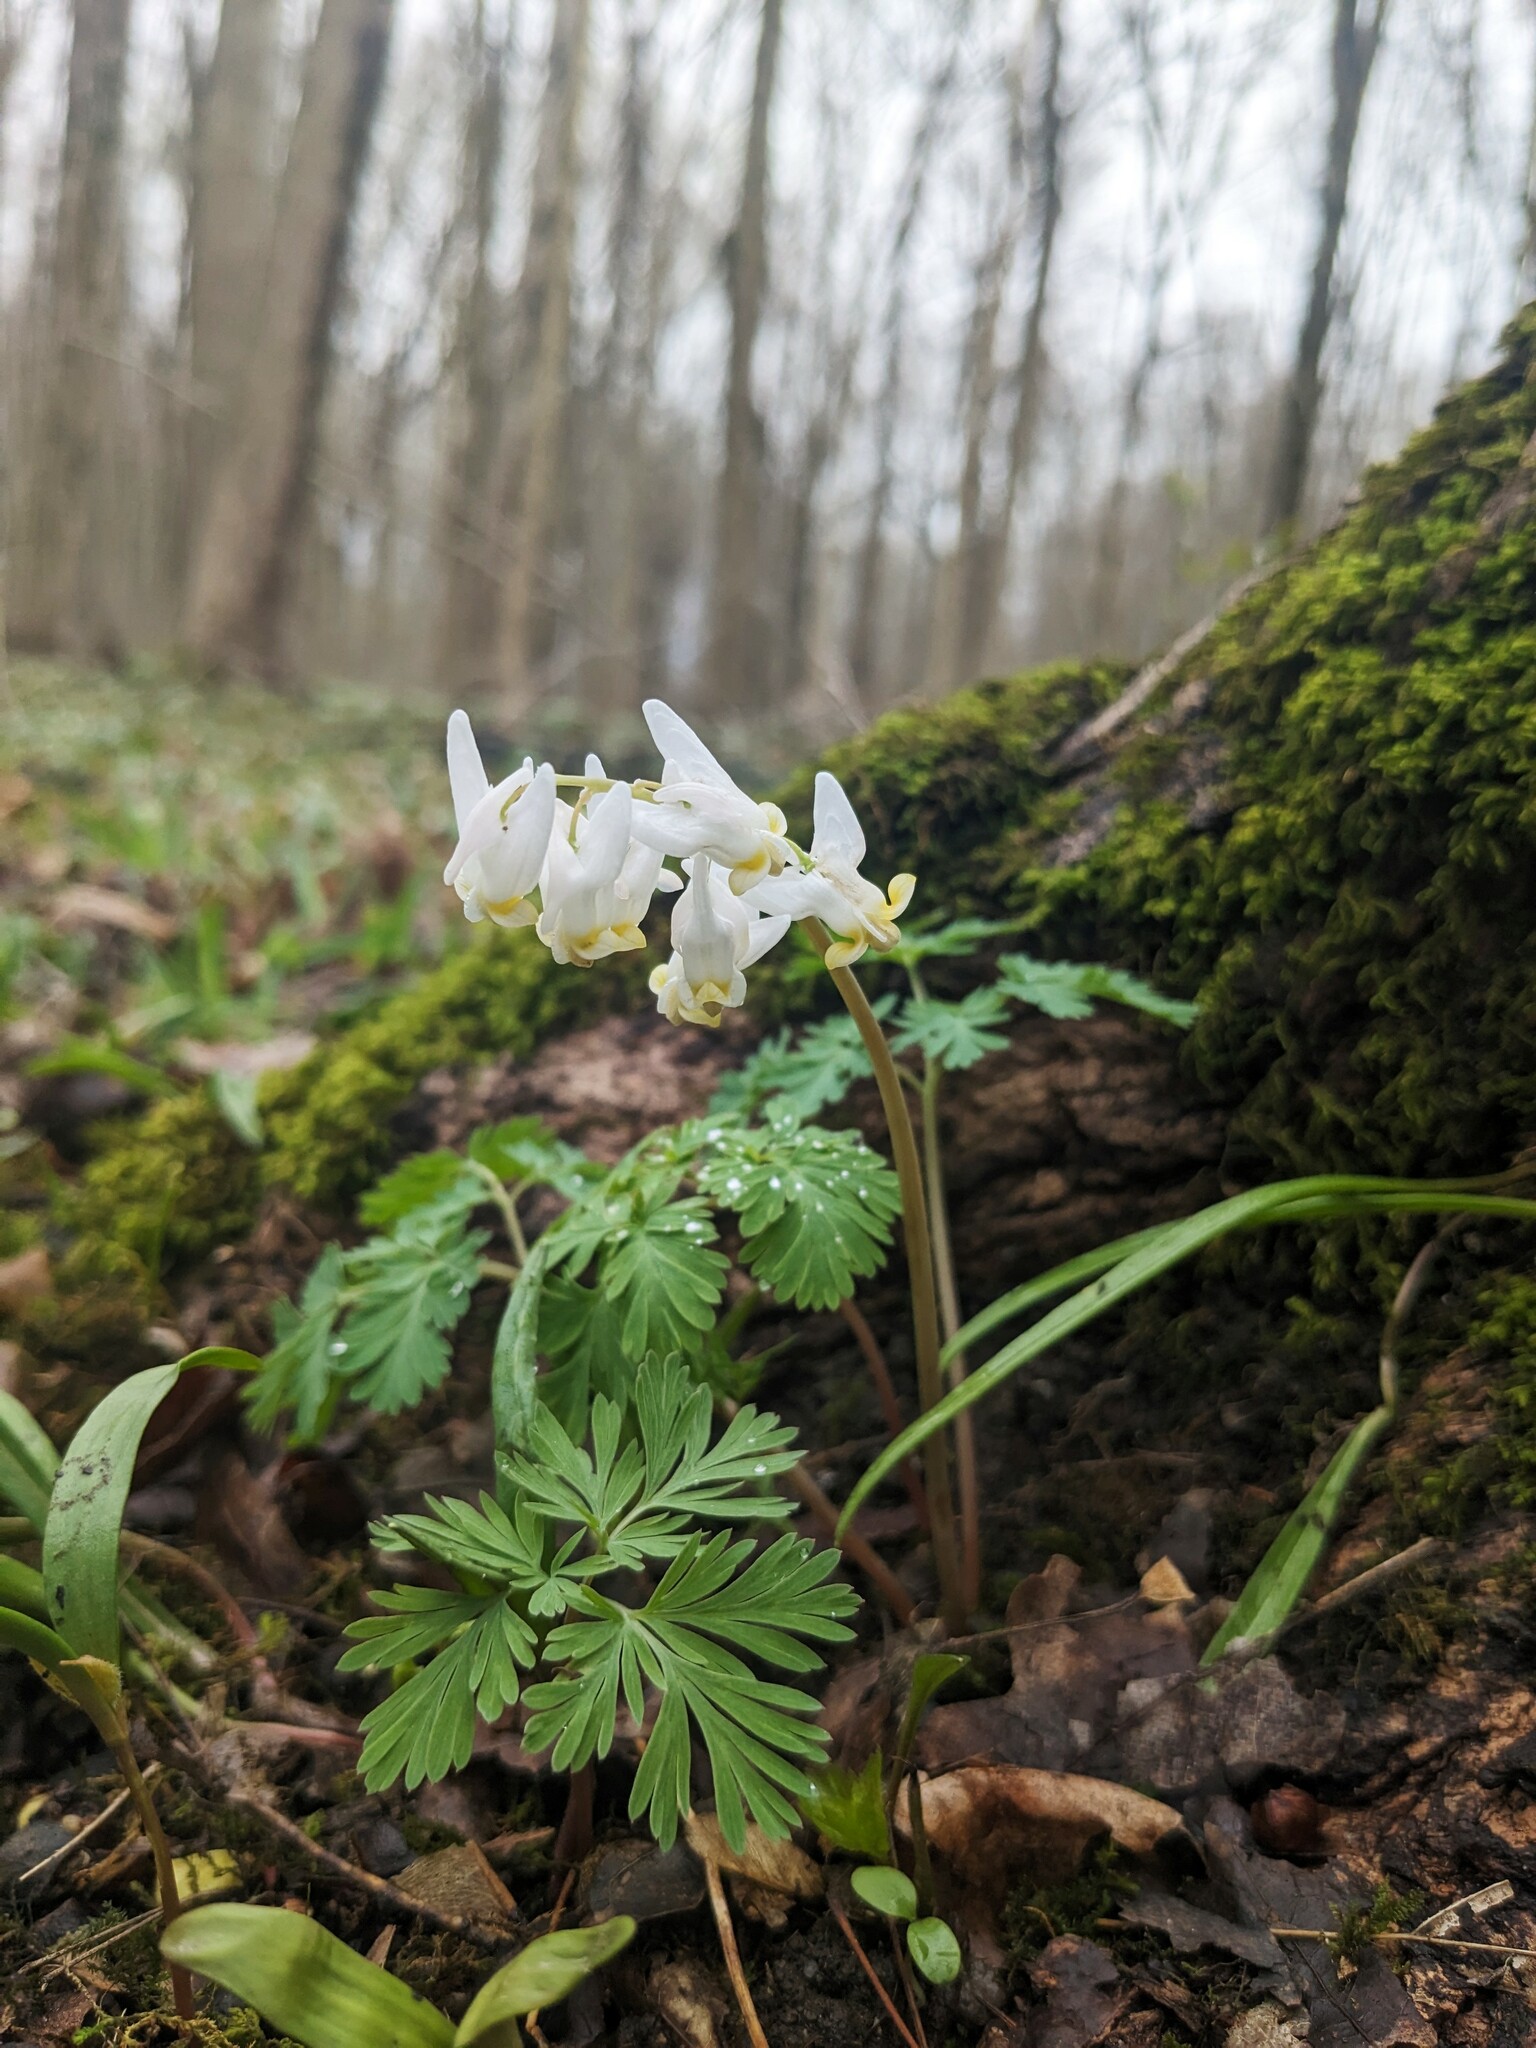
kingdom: Plantae
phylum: Tracheophyta
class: Magnoliopsida
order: Ranunculales
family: Papaveraceae
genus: Dicentra
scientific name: Dicentra cucullaria
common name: Dutchman's breeches
